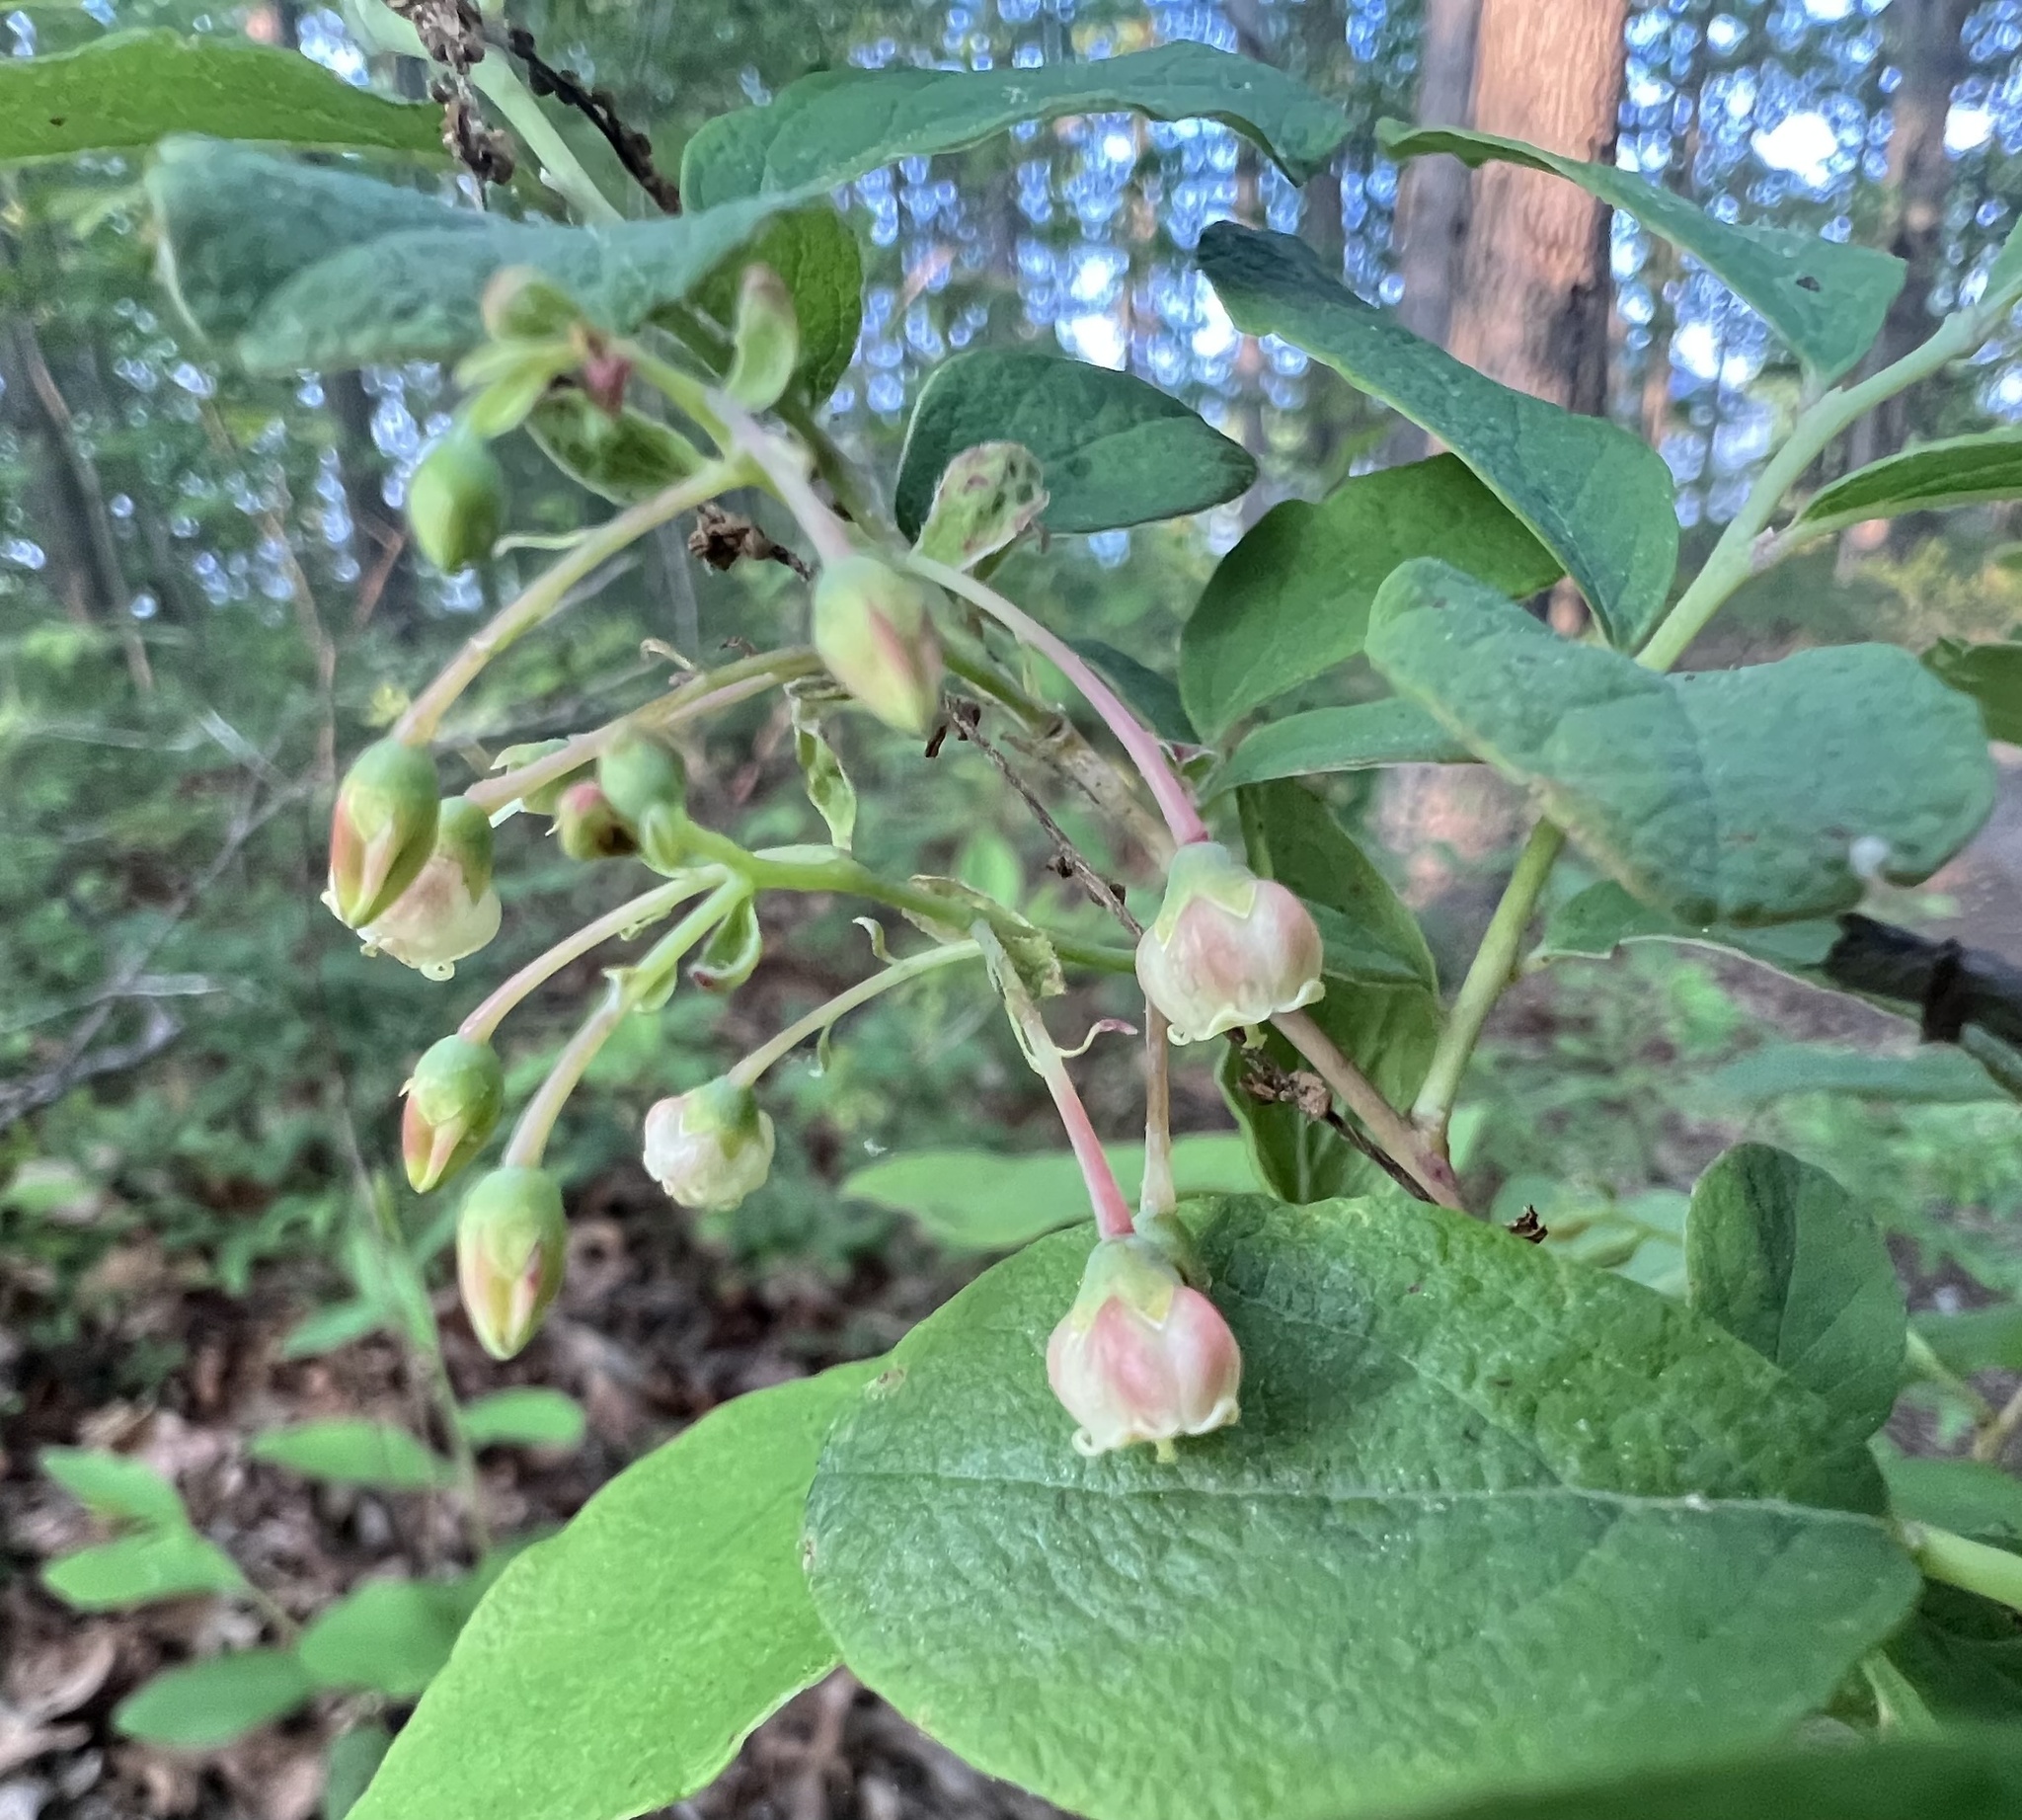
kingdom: Plantae
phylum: Tracheophyta
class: Magnoliopsida
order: Ericales
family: Ericaceae
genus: Gaylussacia
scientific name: Gaylussacia frondosa
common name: Dangleberry
